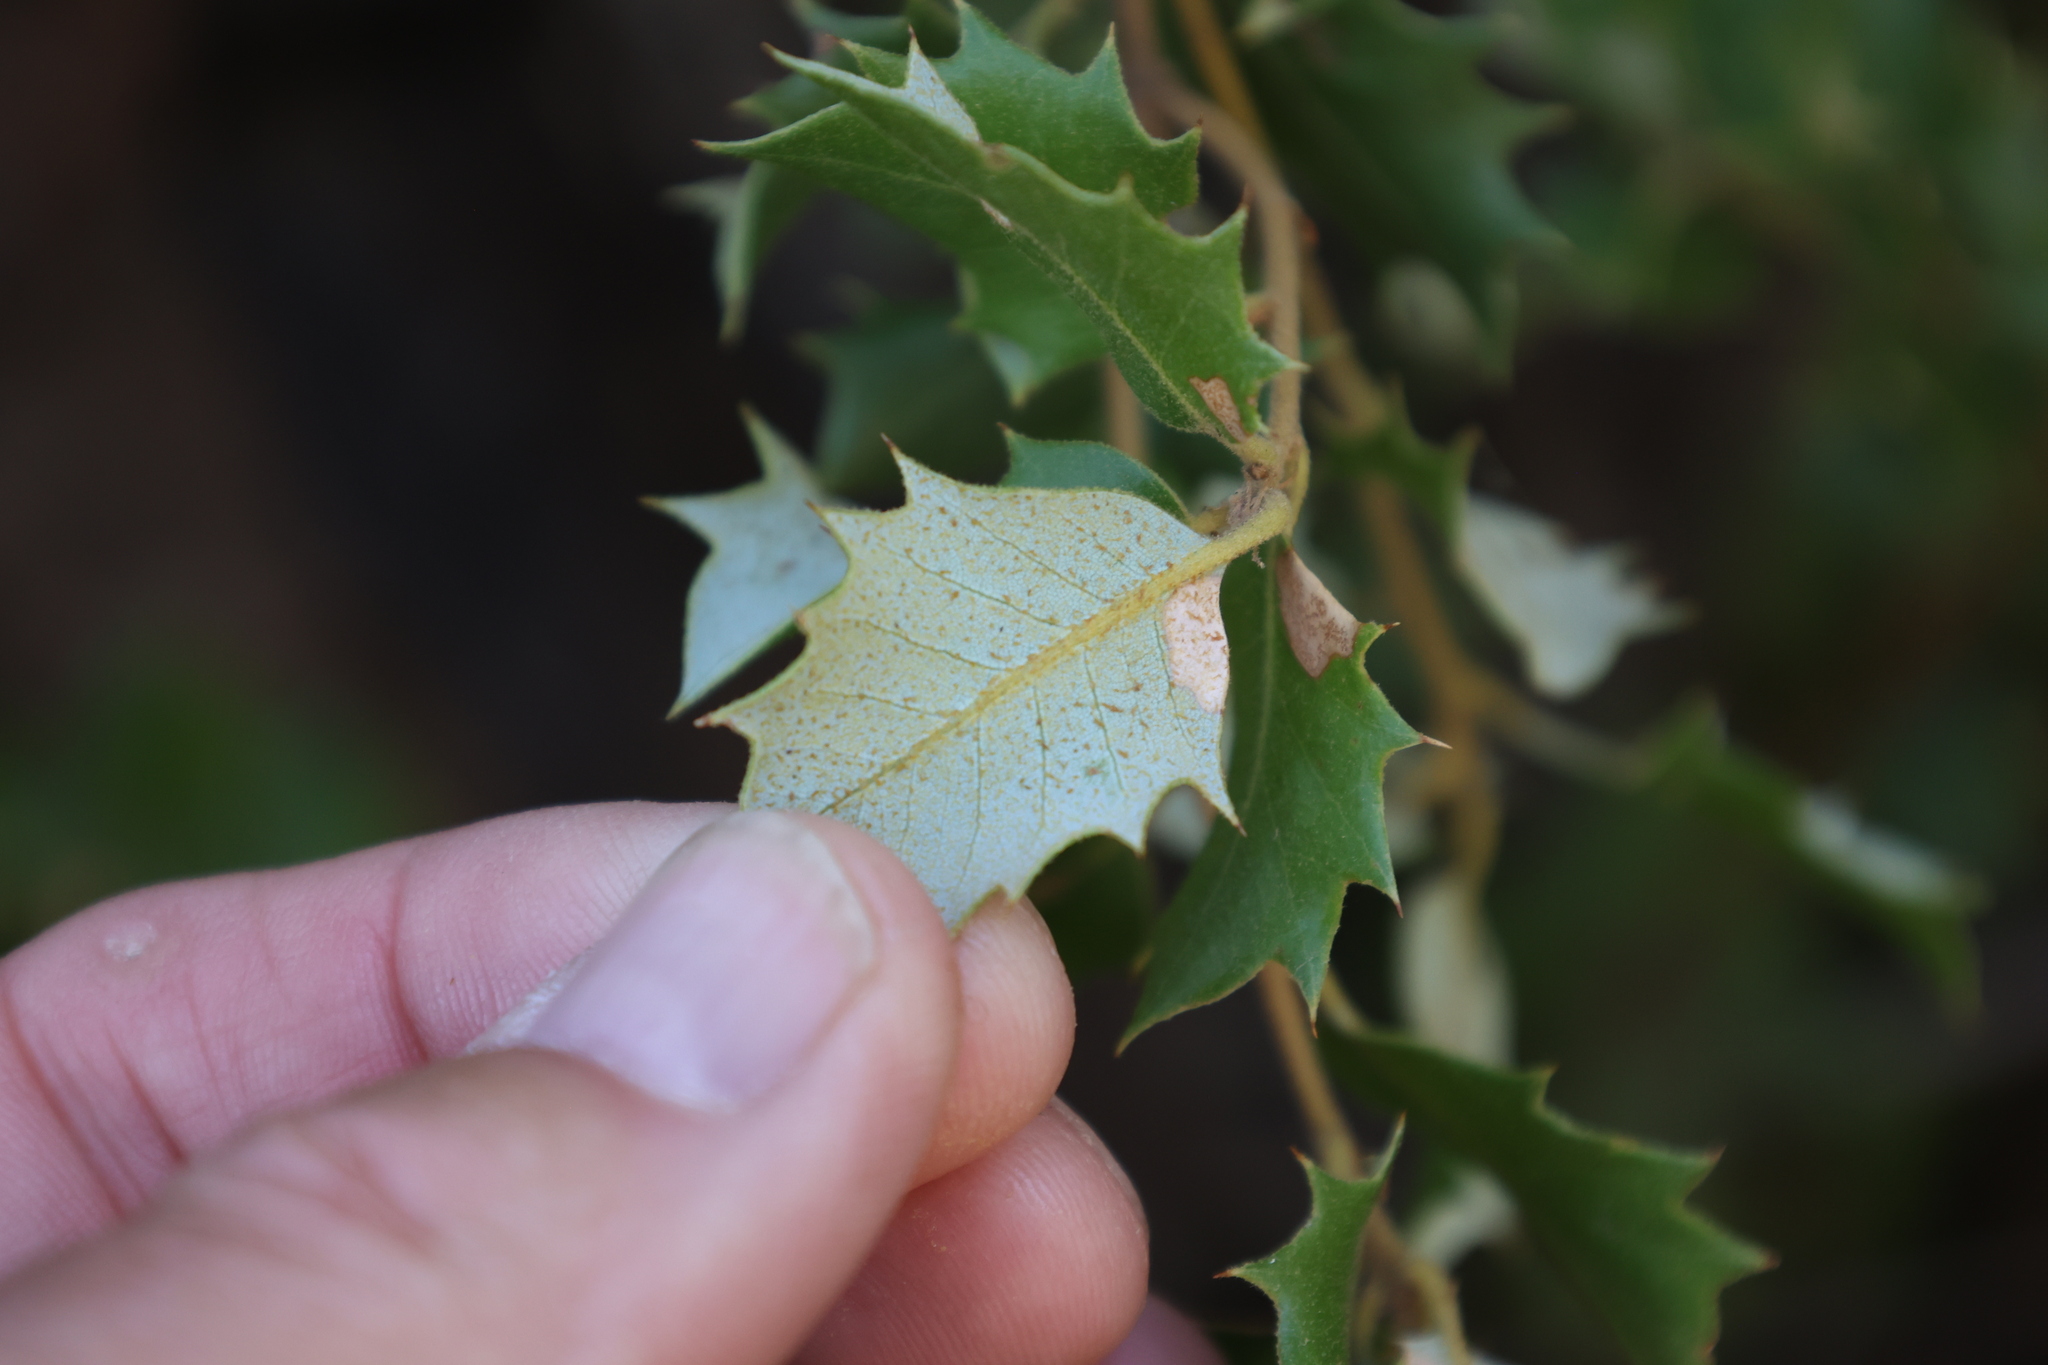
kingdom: Plantae
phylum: Tracheophyta
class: Magnoliopsida
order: Fagales
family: Fagaceae
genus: Quercus
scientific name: Quercus chrysolepis
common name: Canyon live oak
